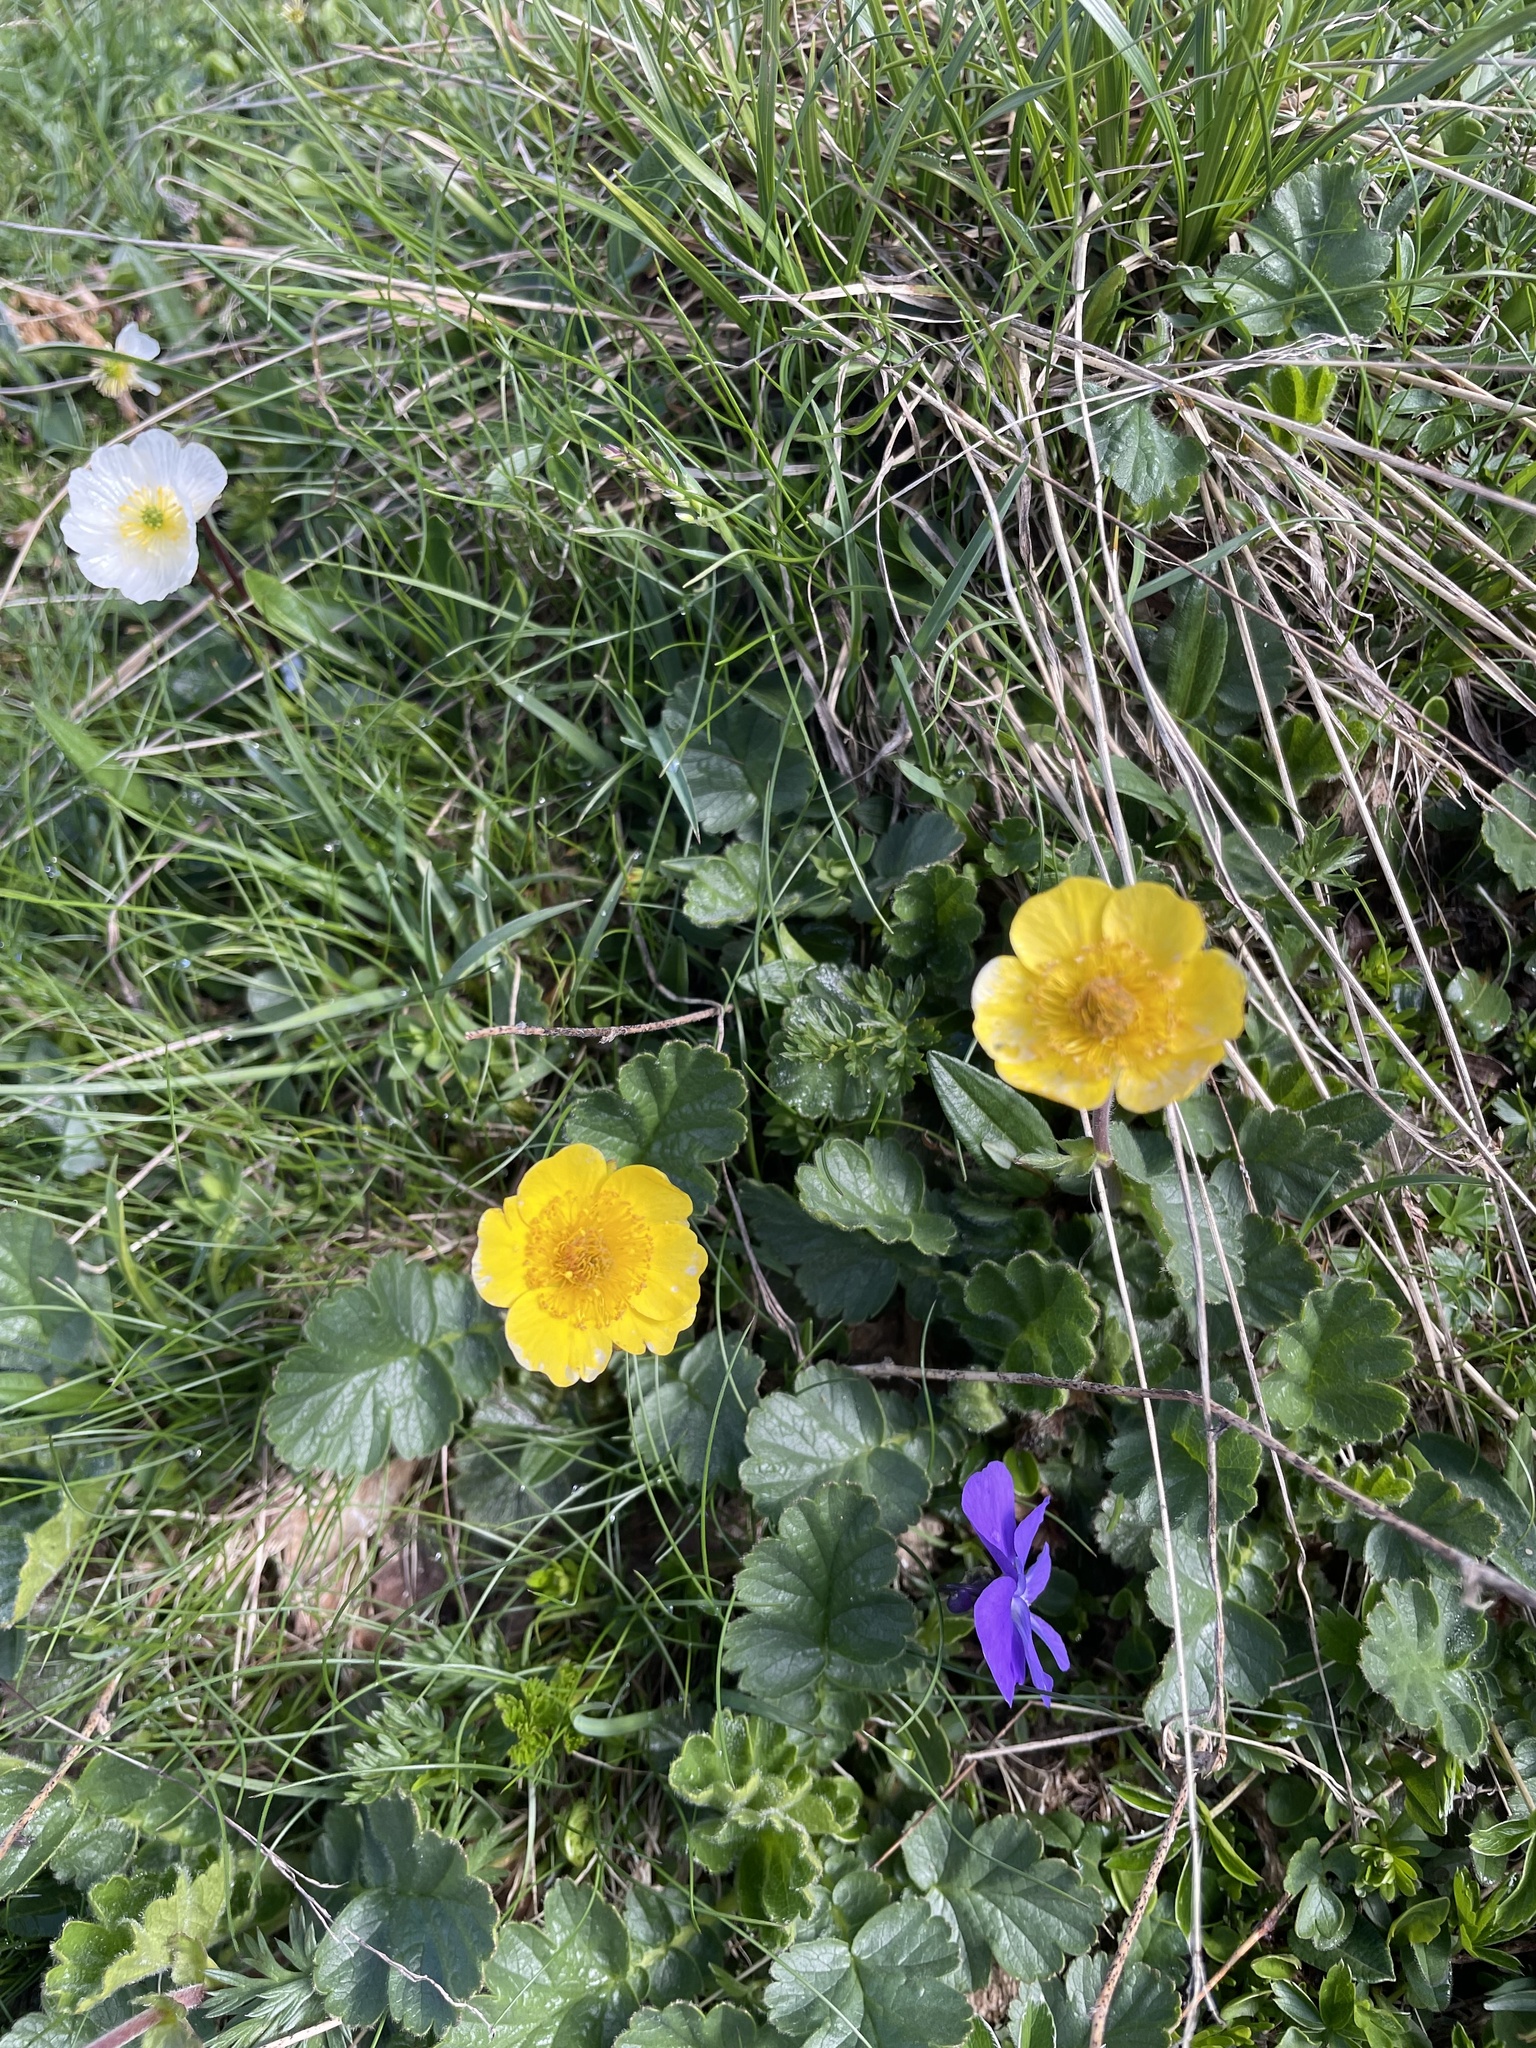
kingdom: Plantae
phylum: Tracheophyta
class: Magnoliopsida
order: Rosales
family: Rosaceae
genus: Geum
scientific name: Geum montanum
